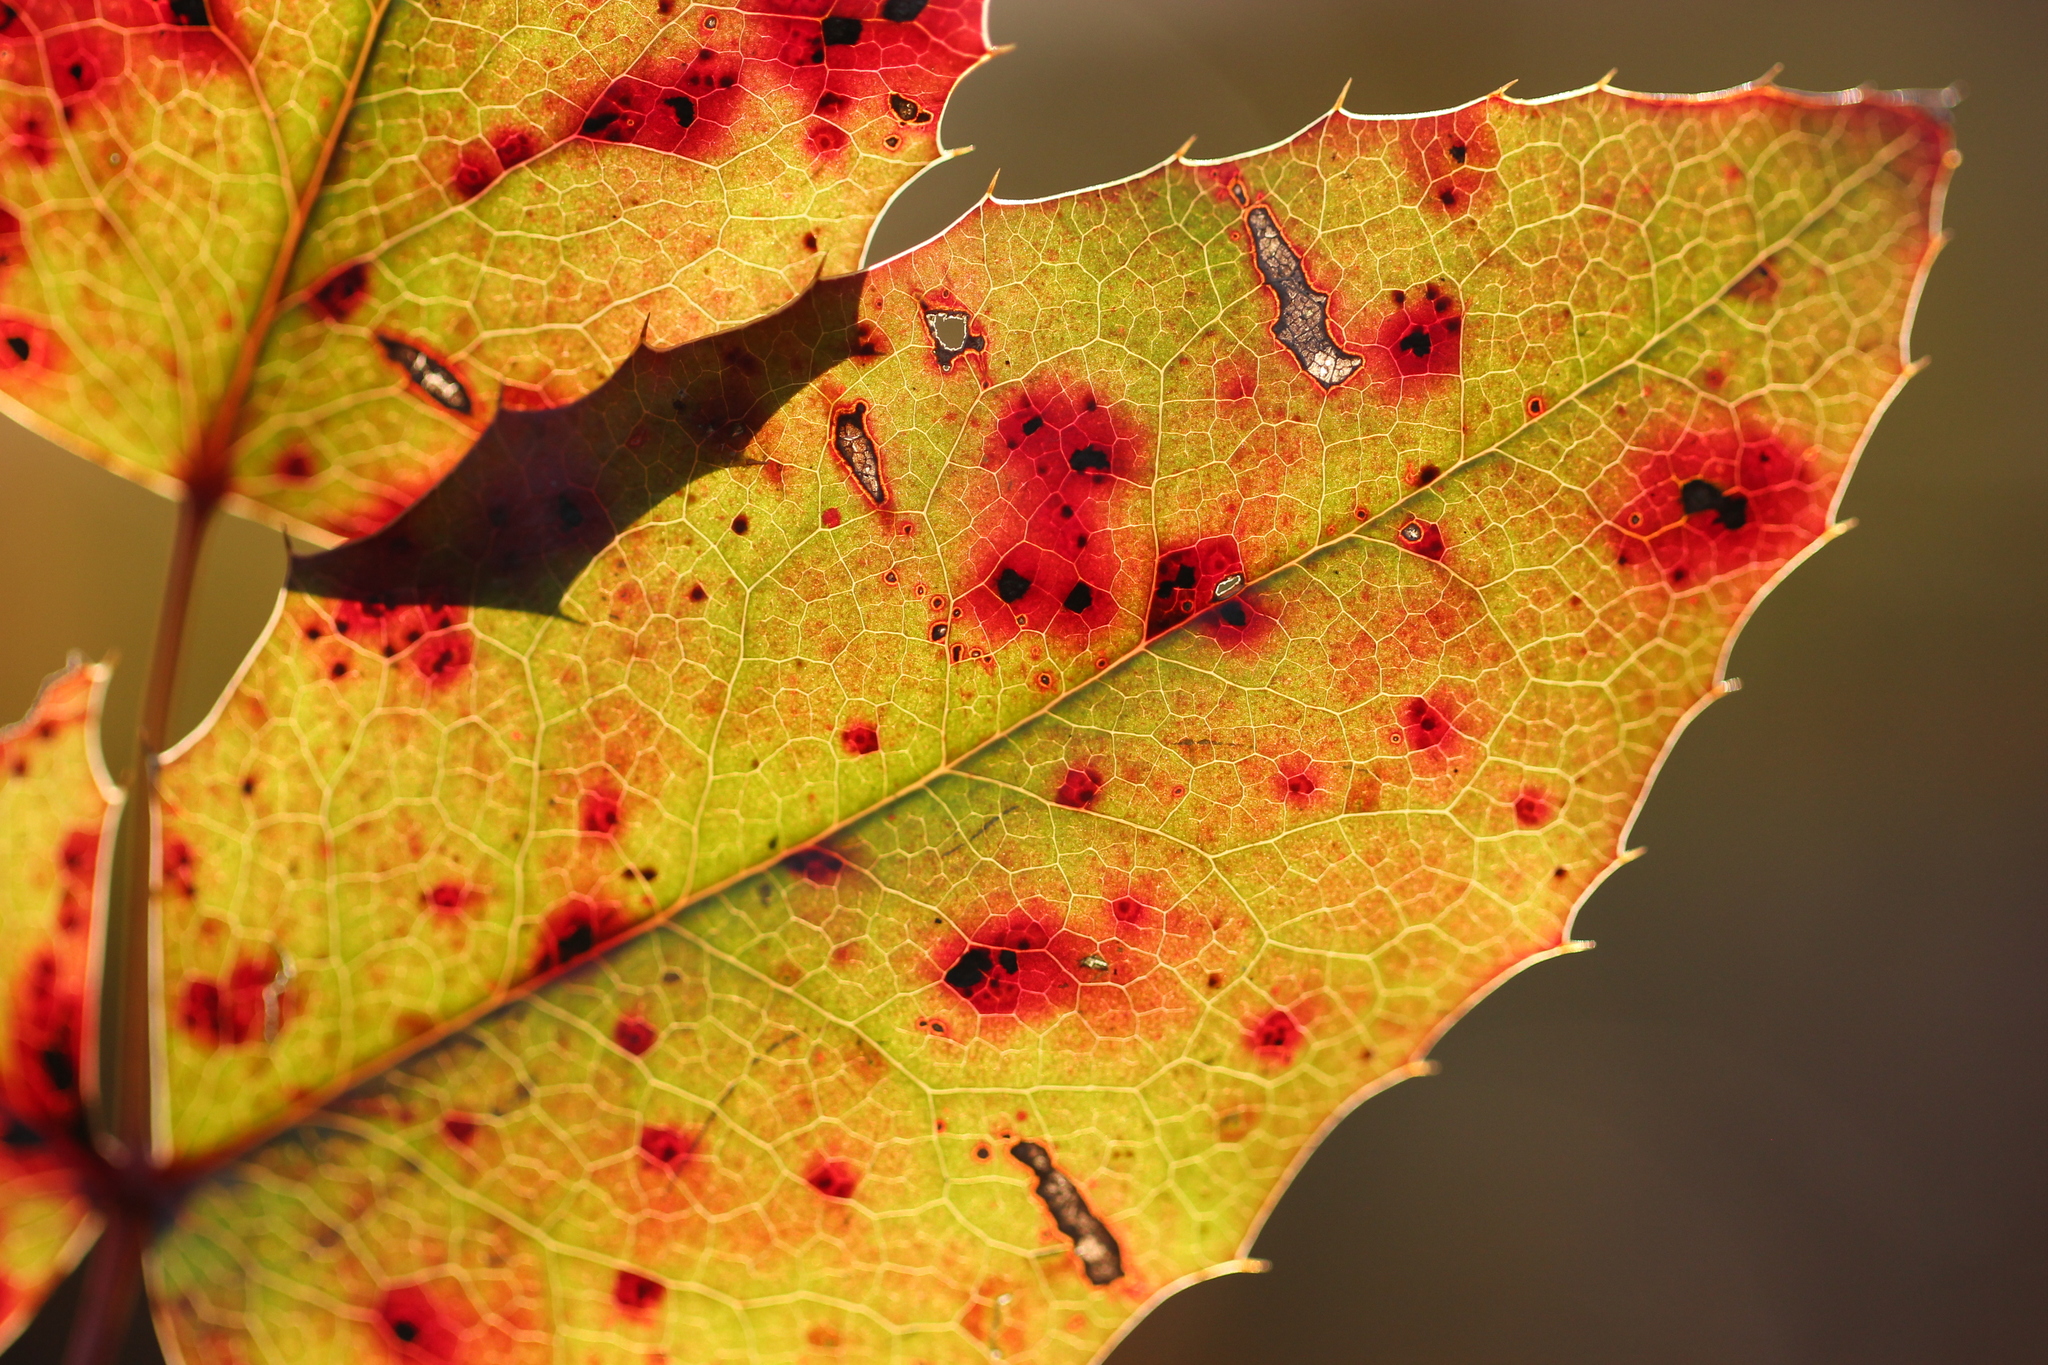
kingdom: Fungi
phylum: Basidiomycota
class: Pucciniomycetes
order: Pucciniales
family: Pucciniaceae
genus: Cumminsiella
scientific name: Cumminsiella mirabilissima
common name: Mahonia rust
